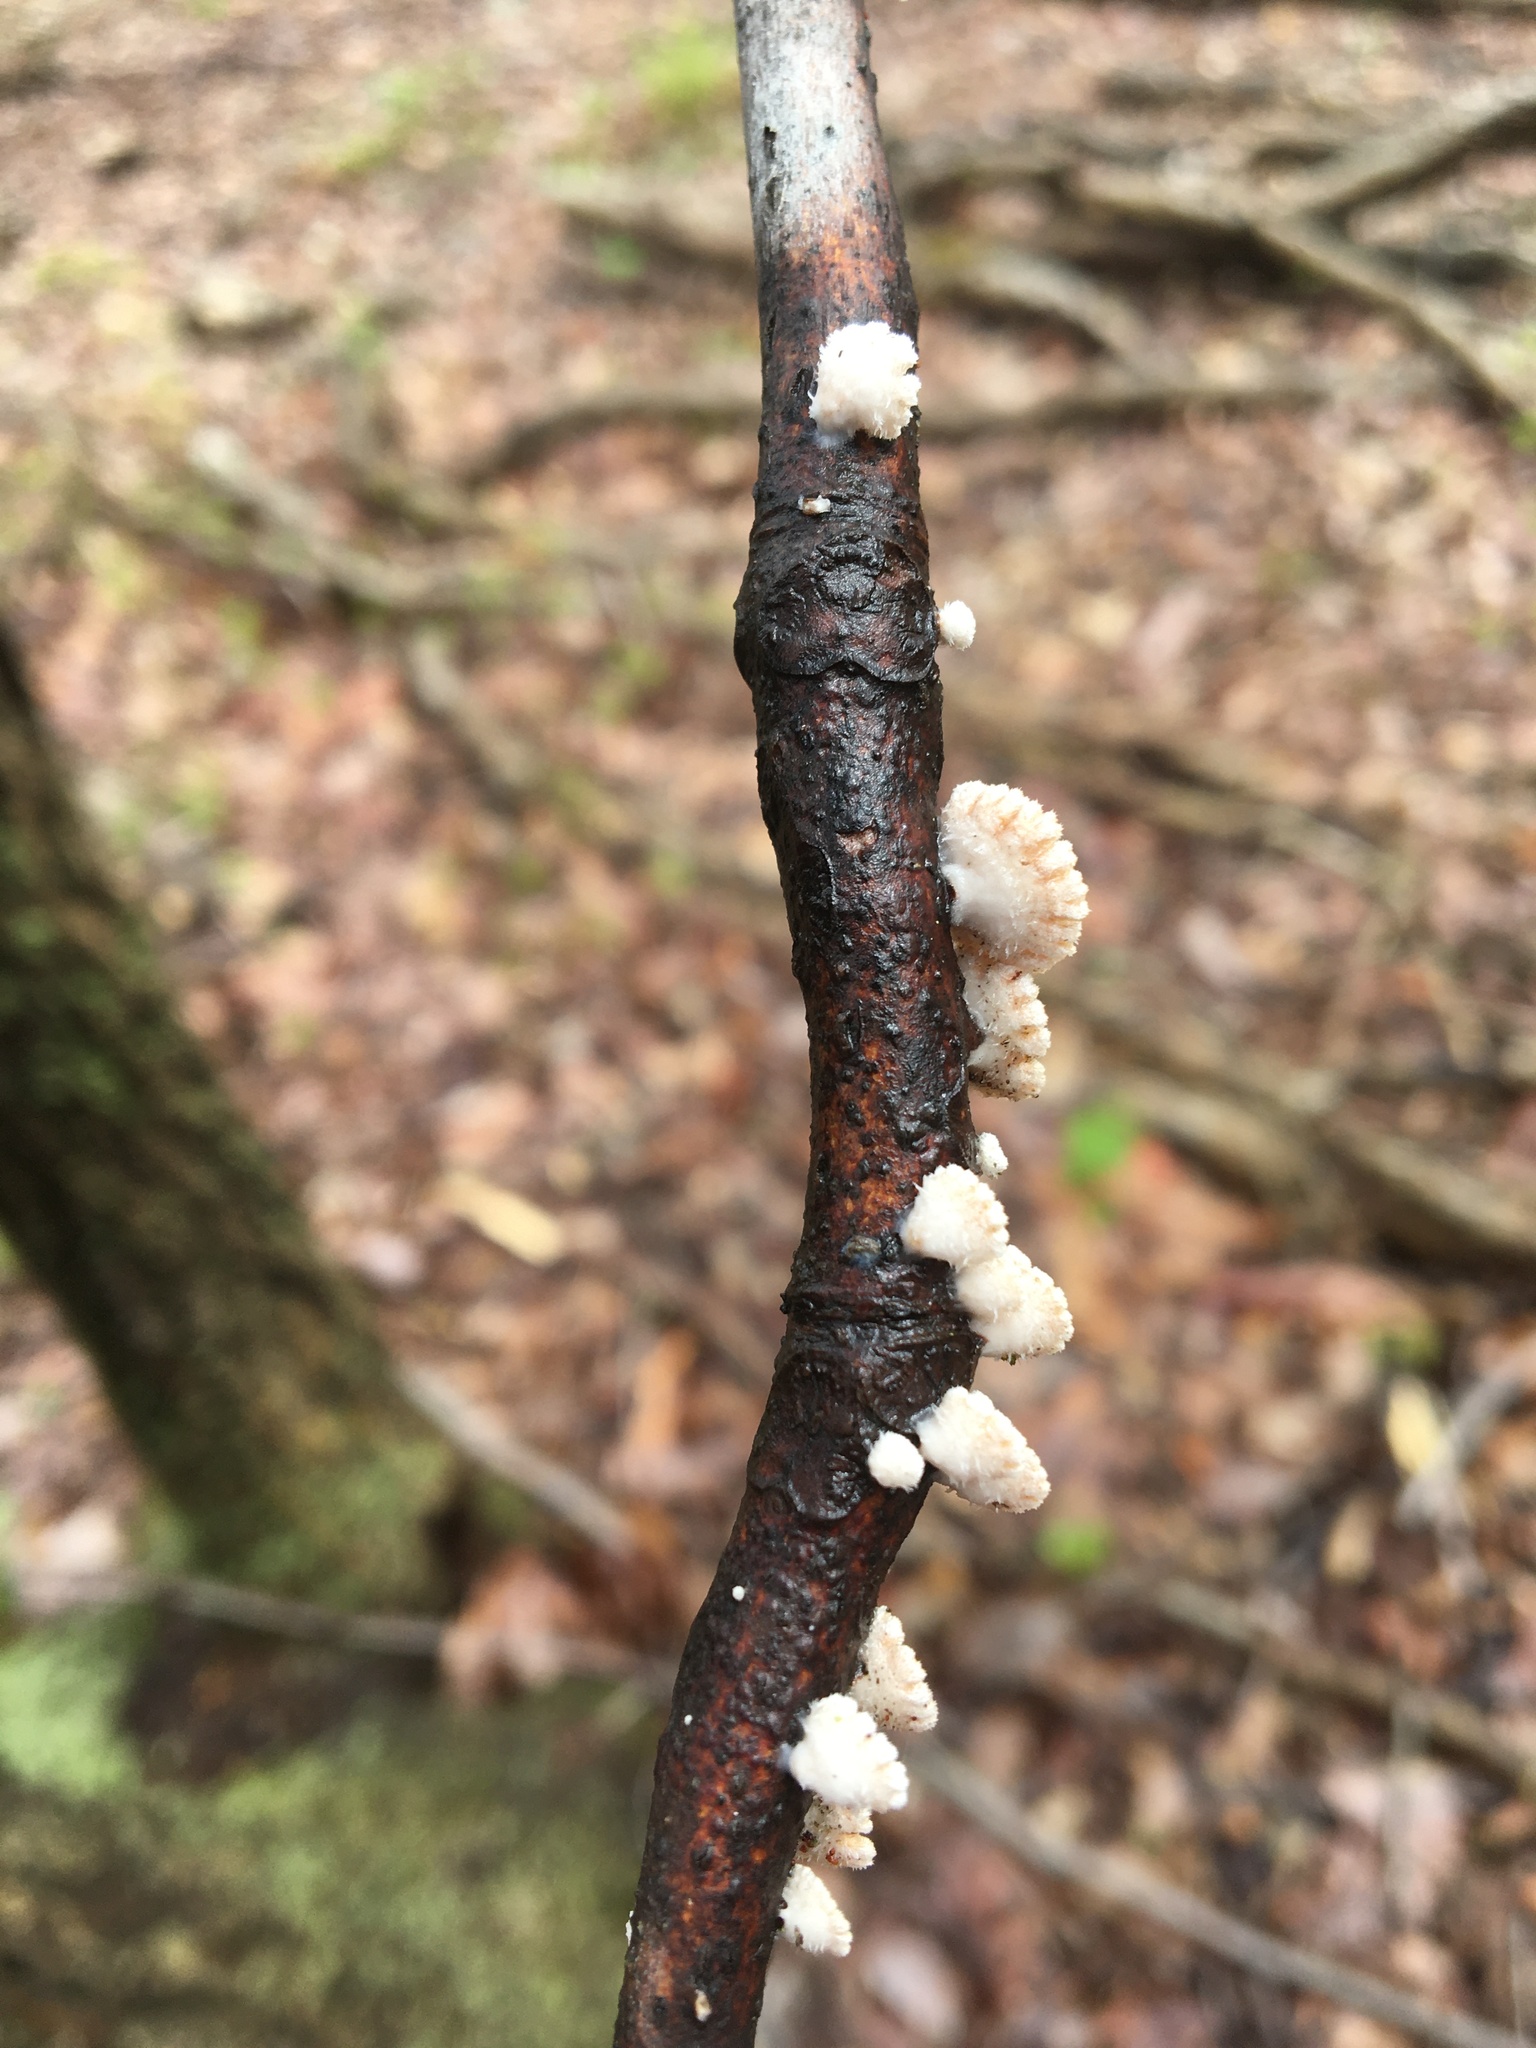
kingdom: Fungi
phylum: Basidiomycota
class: Agaricomycetes
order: Agaricales
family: Schizophyllaceae
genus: Schizophyllum
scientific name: Schizophyllum commune
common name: Common porecrust
